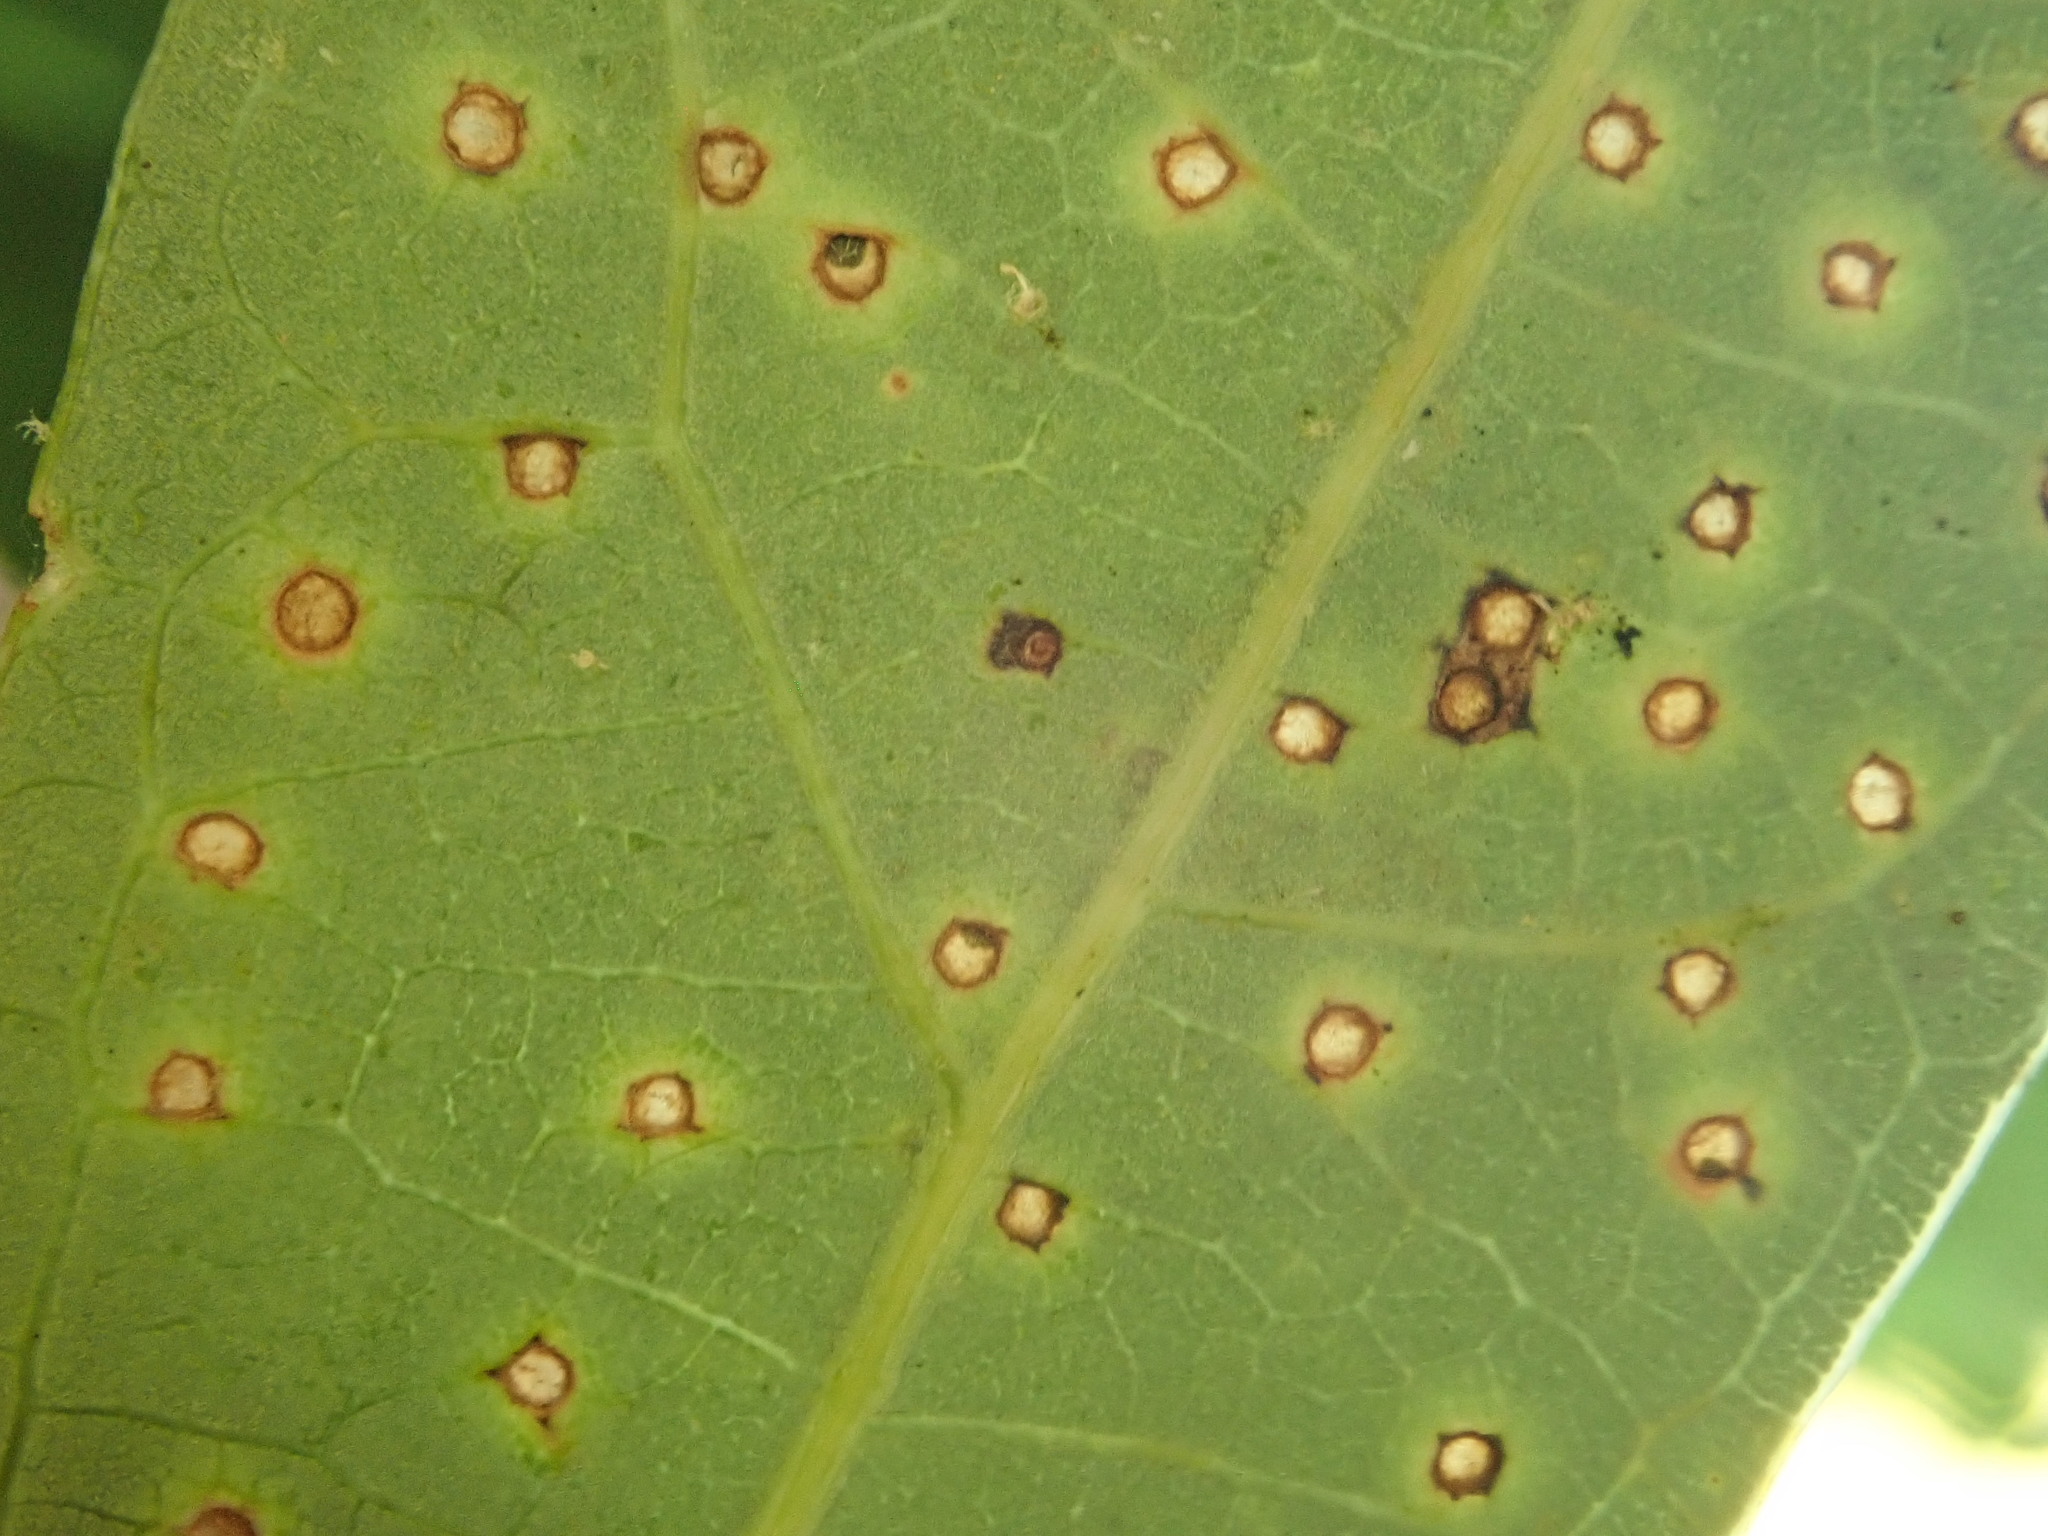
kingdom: Animalia
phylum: Arthropoda
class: Insecta
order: Hymenoptera
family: Cynipidae
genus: Neuroterus
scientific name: Neuroterus
